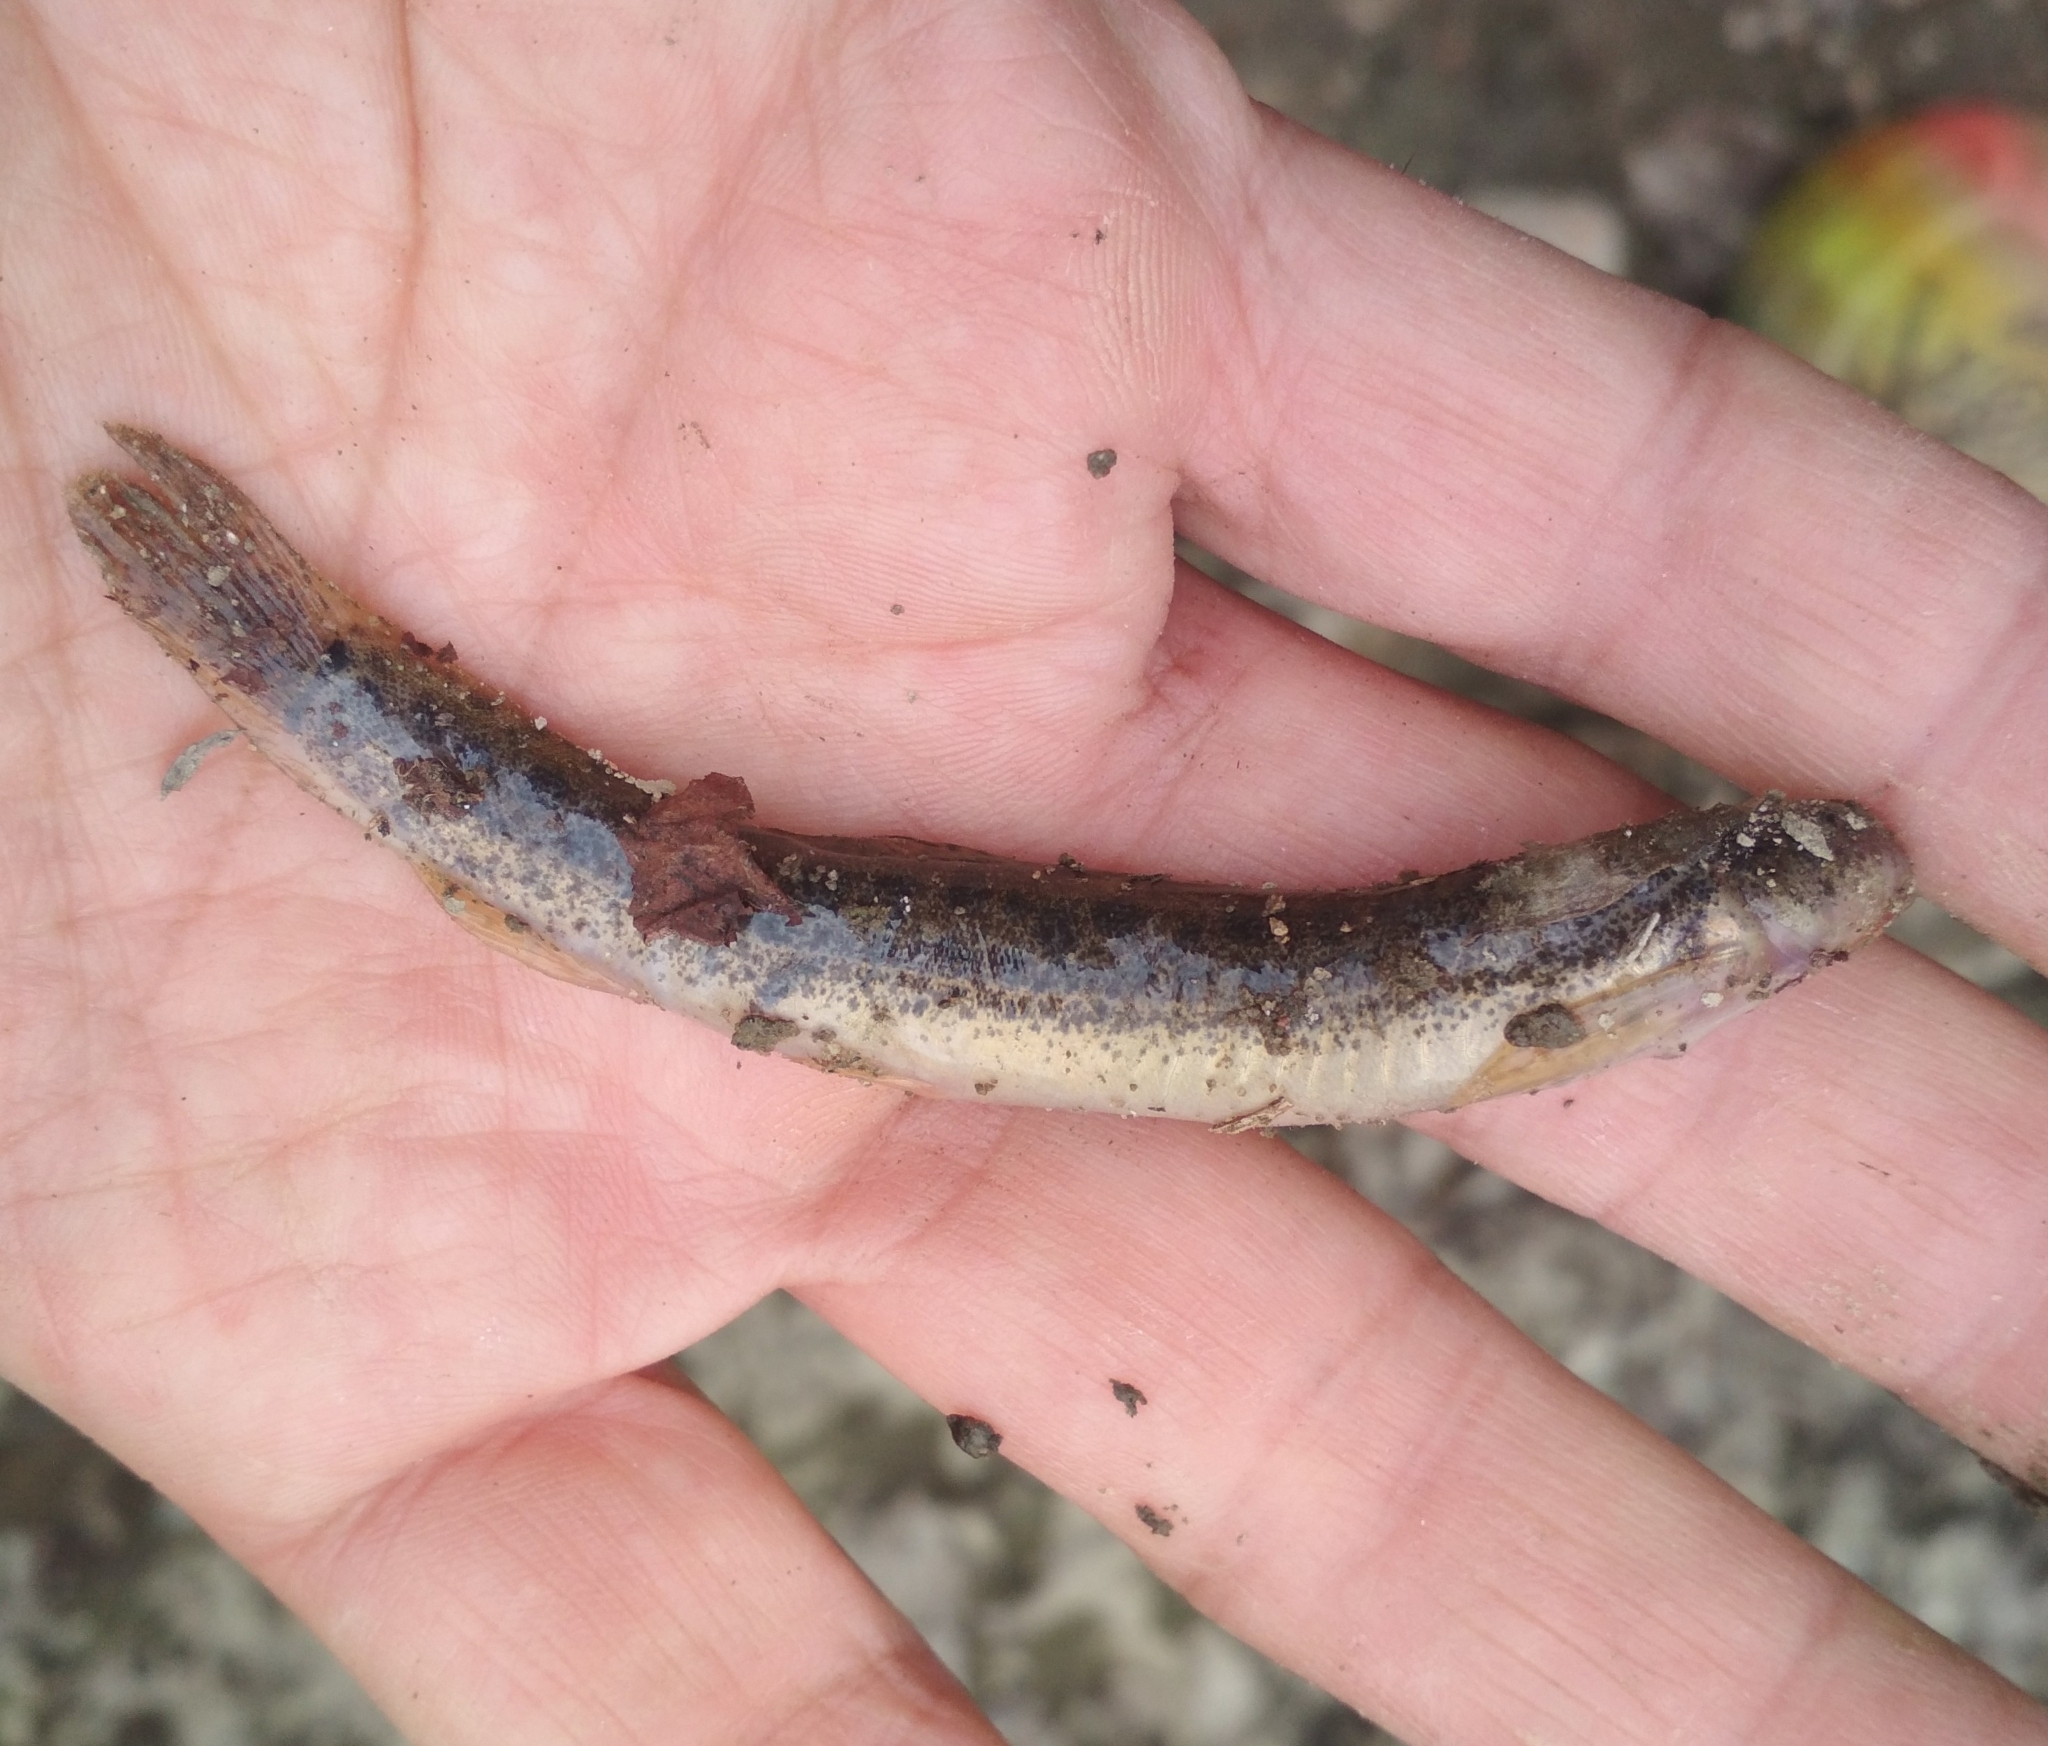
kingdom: Animalia
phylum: Chordata
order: Cypriniformes
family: Cobitidae
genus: Misgurnus
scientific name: Misgurnus anguillicaudatus
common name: Oriental weatherfish
